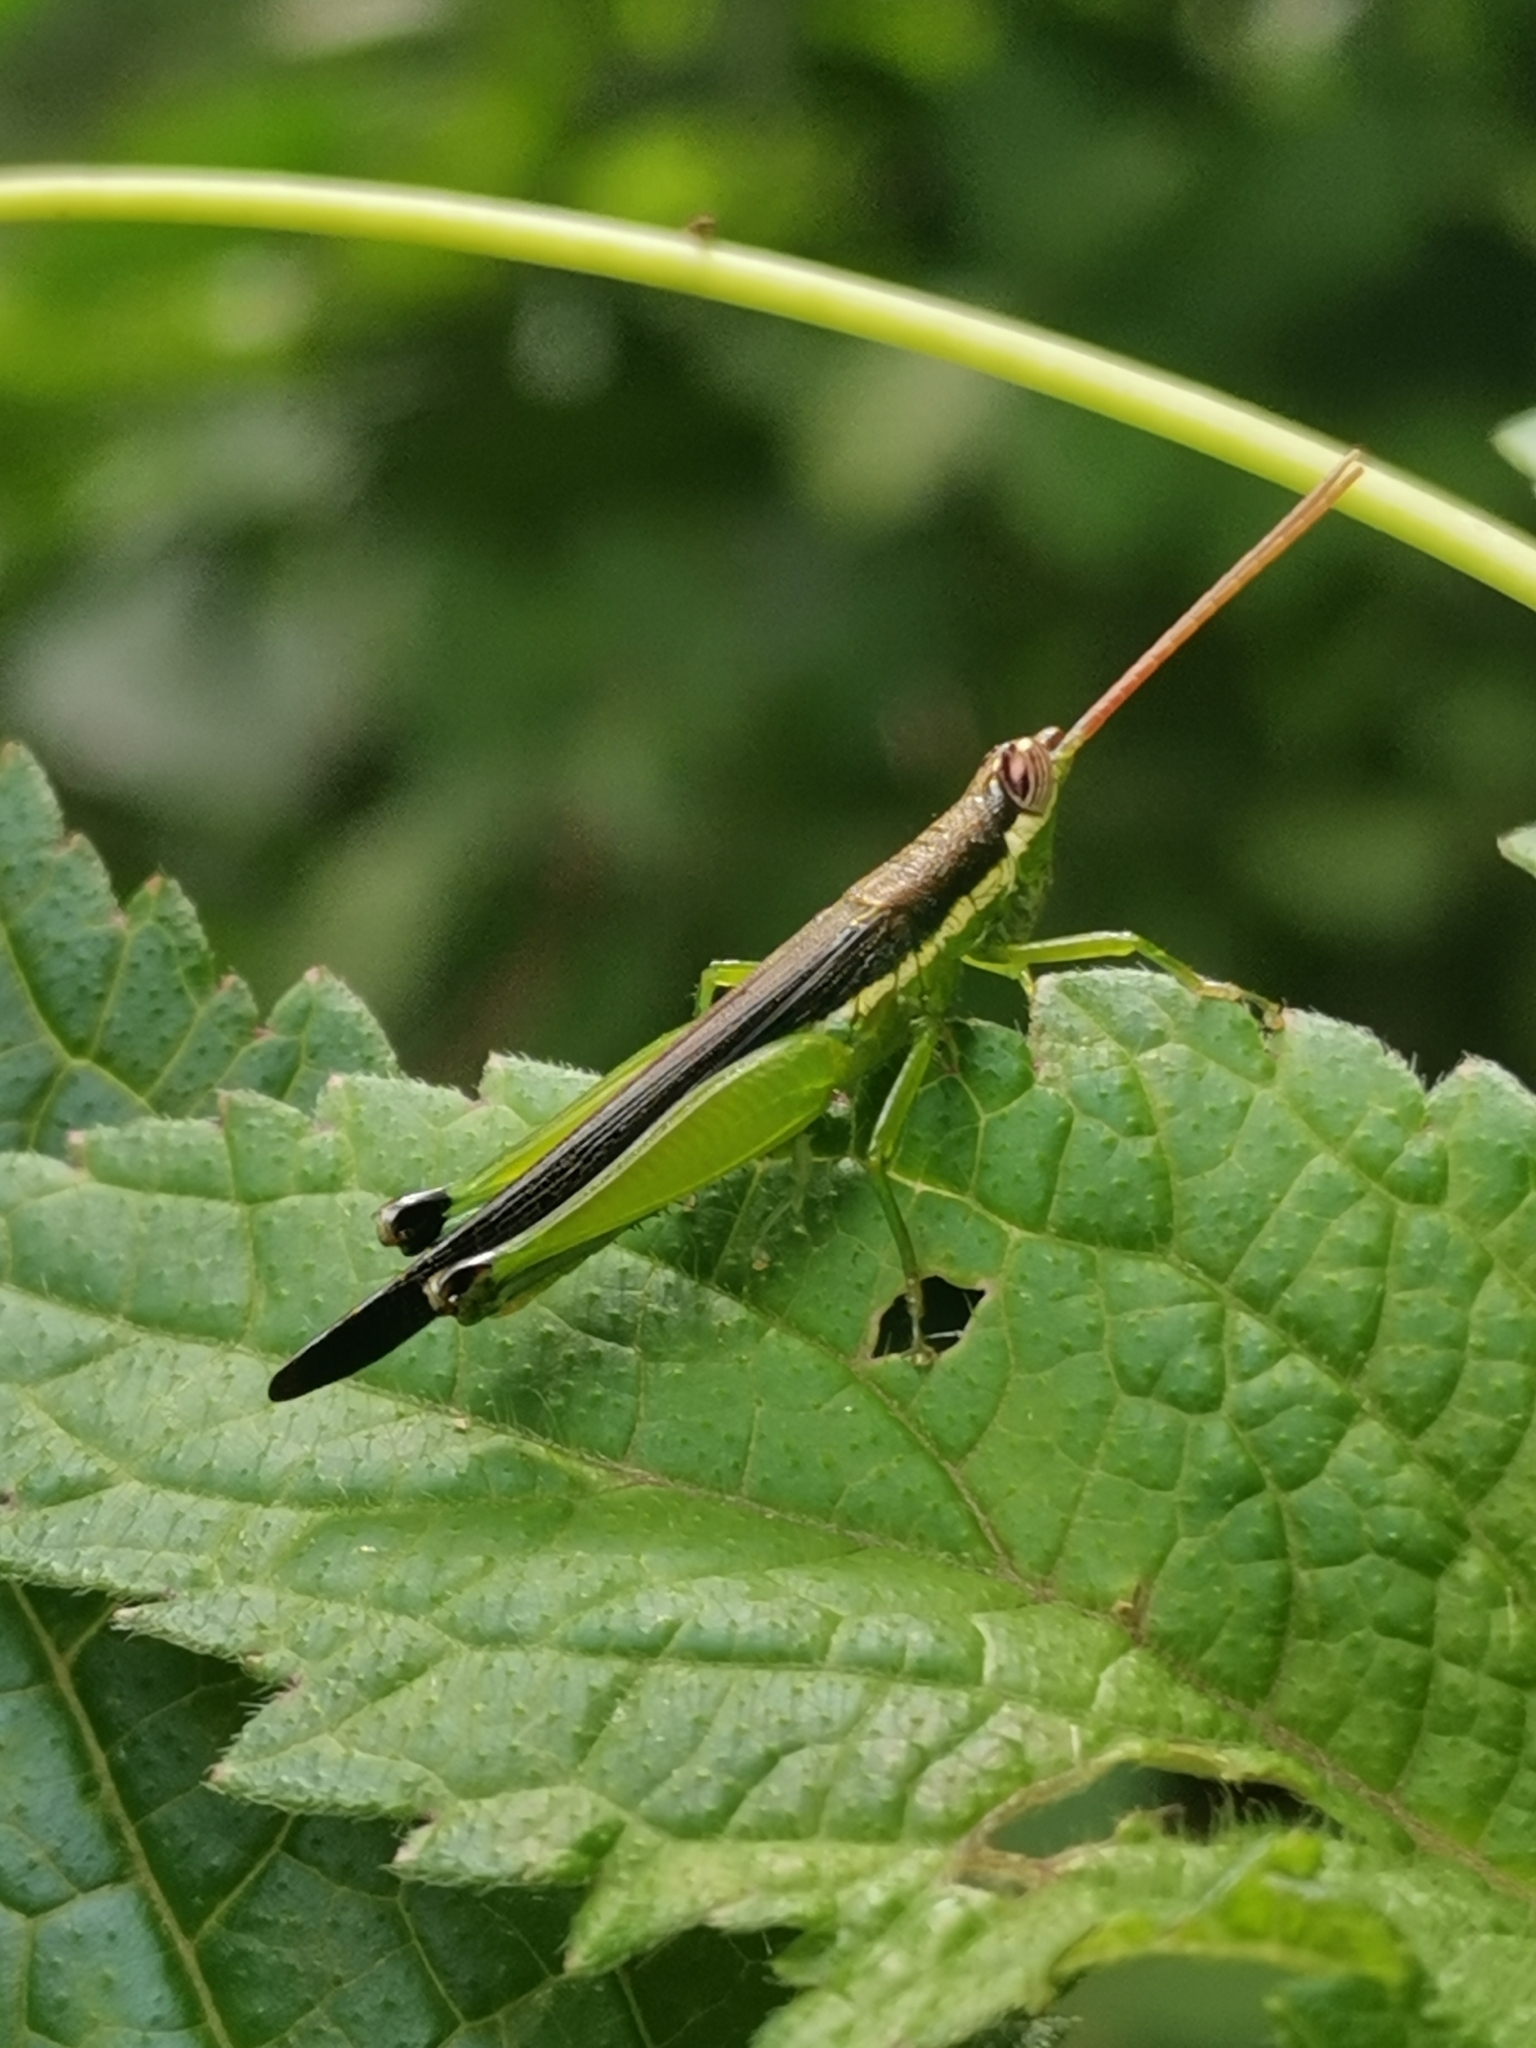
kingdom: Animalia
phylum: Arthropoda
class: Insecta
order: Orthoptera
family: Acrididae
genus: Stenopola
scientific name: Stenopola puncticeps
